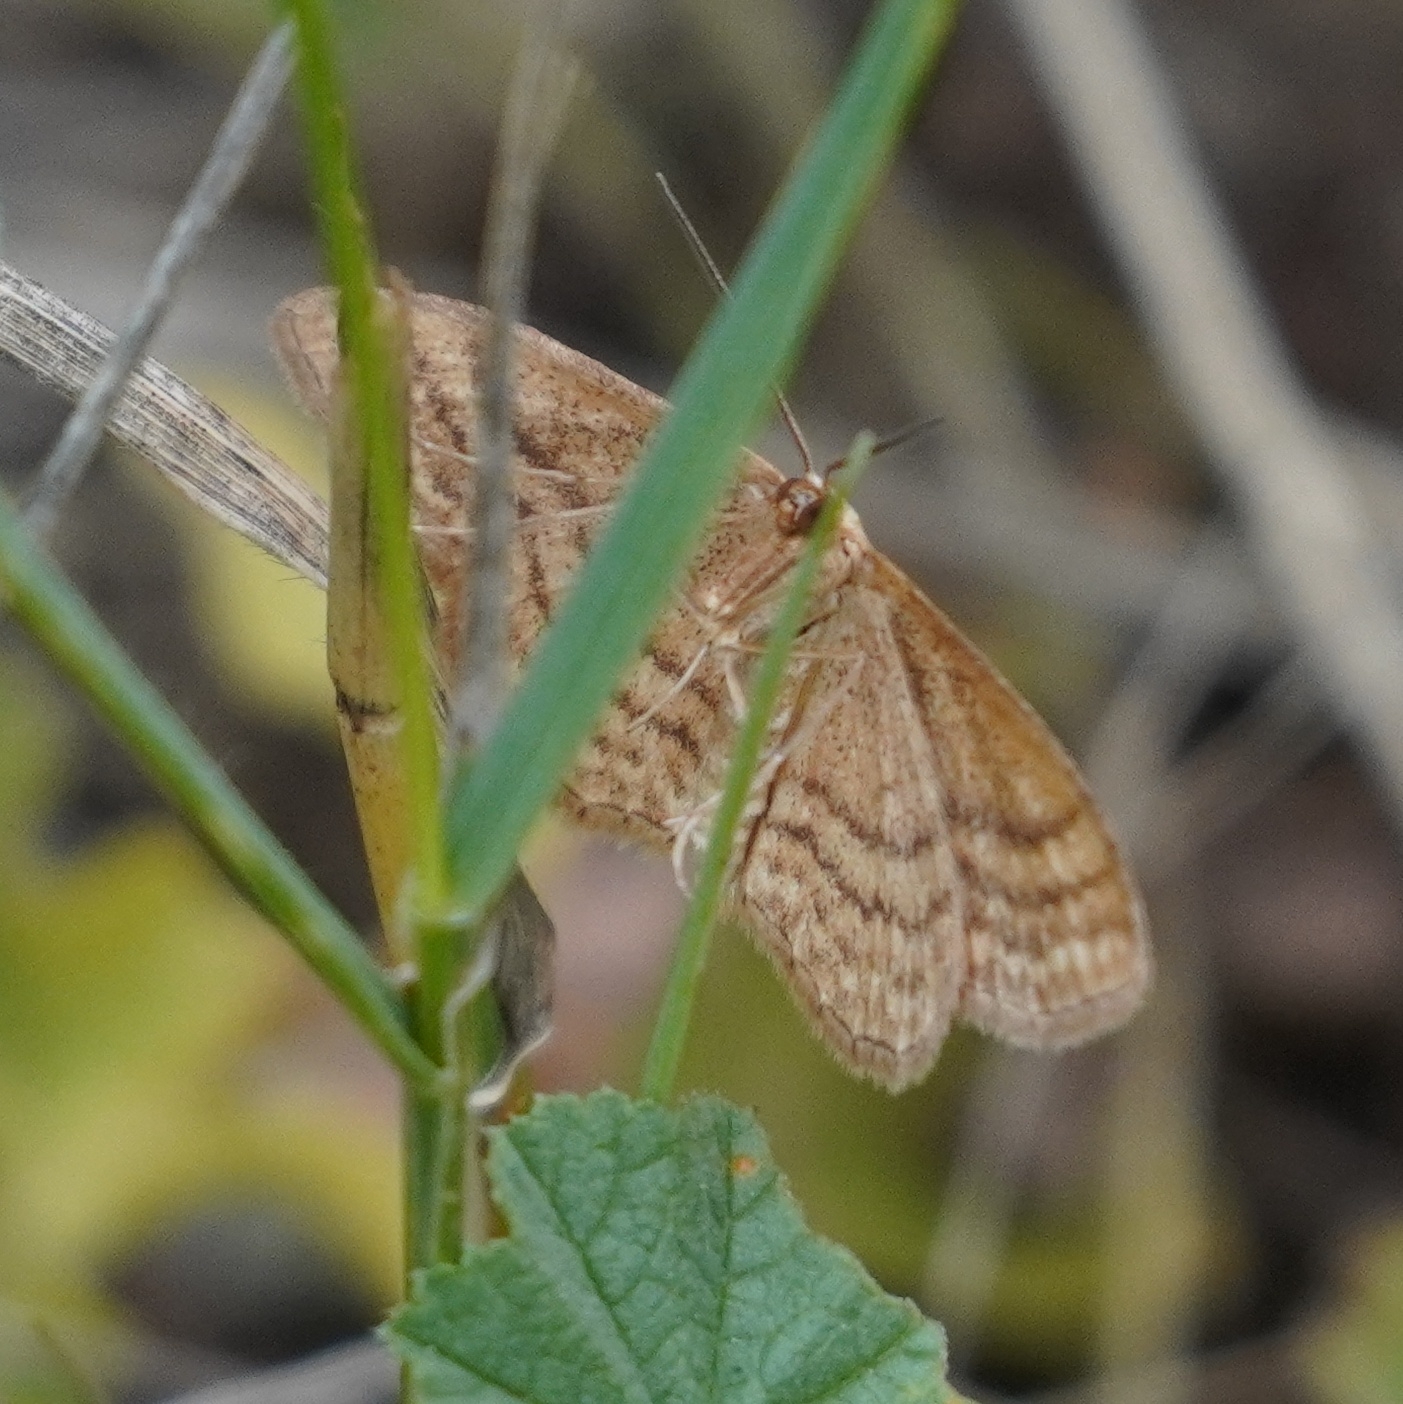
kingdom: Animalia
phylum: Arthropoda
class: Insecta
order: Lepidoptera
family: Geometridae
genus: Idaea
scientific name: Idaea ochrata
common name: Bright wave
